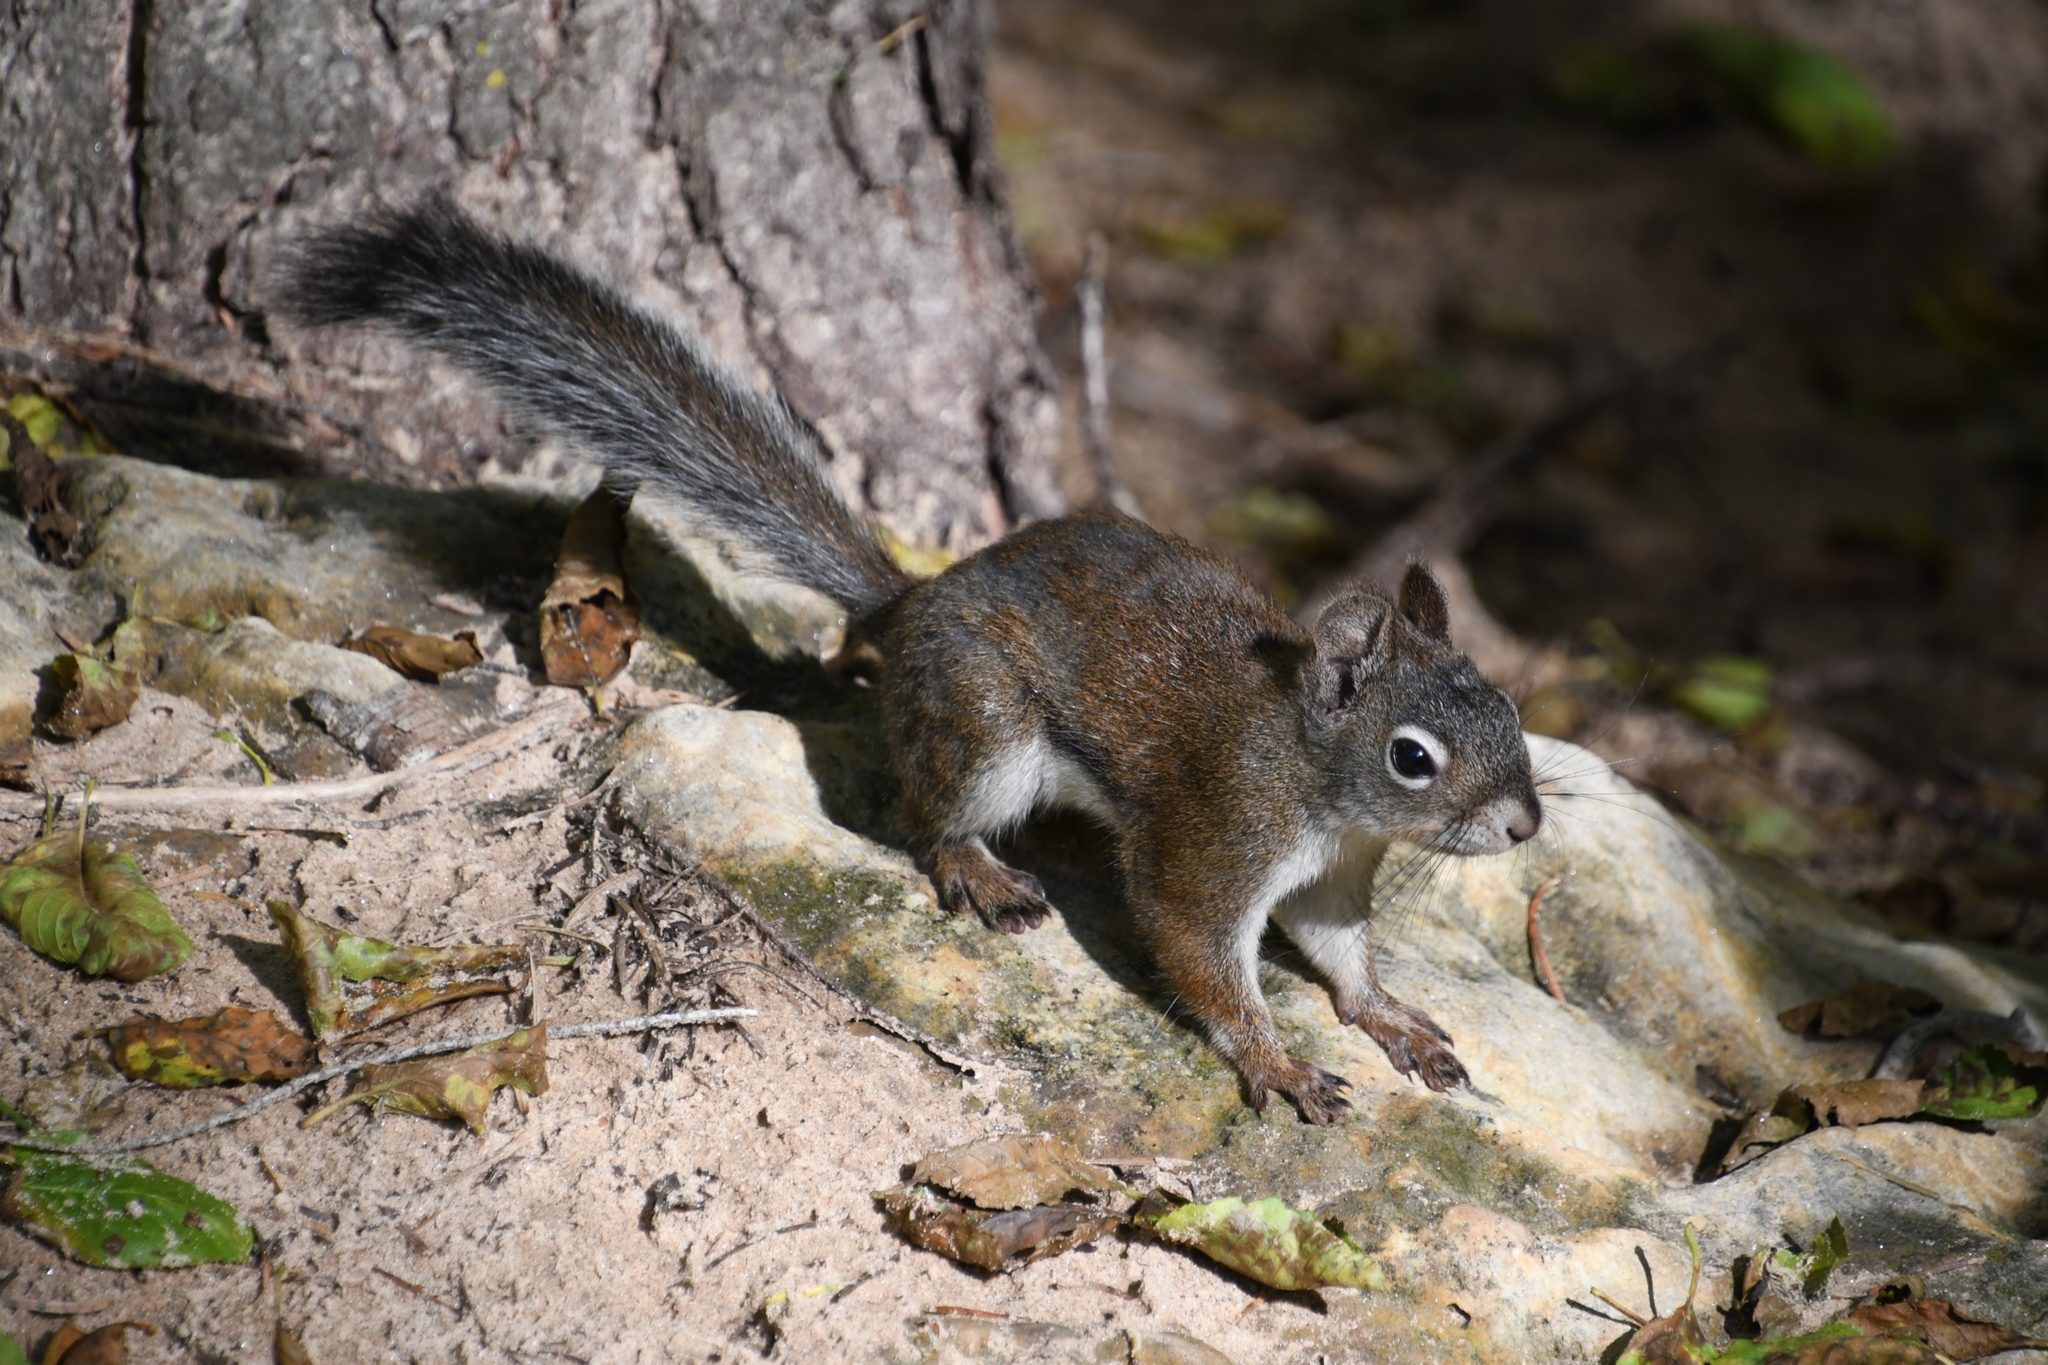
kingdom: Animalia
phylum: Chordata
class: Mammalia
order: Rodentia
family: Sciuridae
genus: Tamiasciurus
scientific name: Tamiasciurus hudsonicus
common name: Red squirrel
